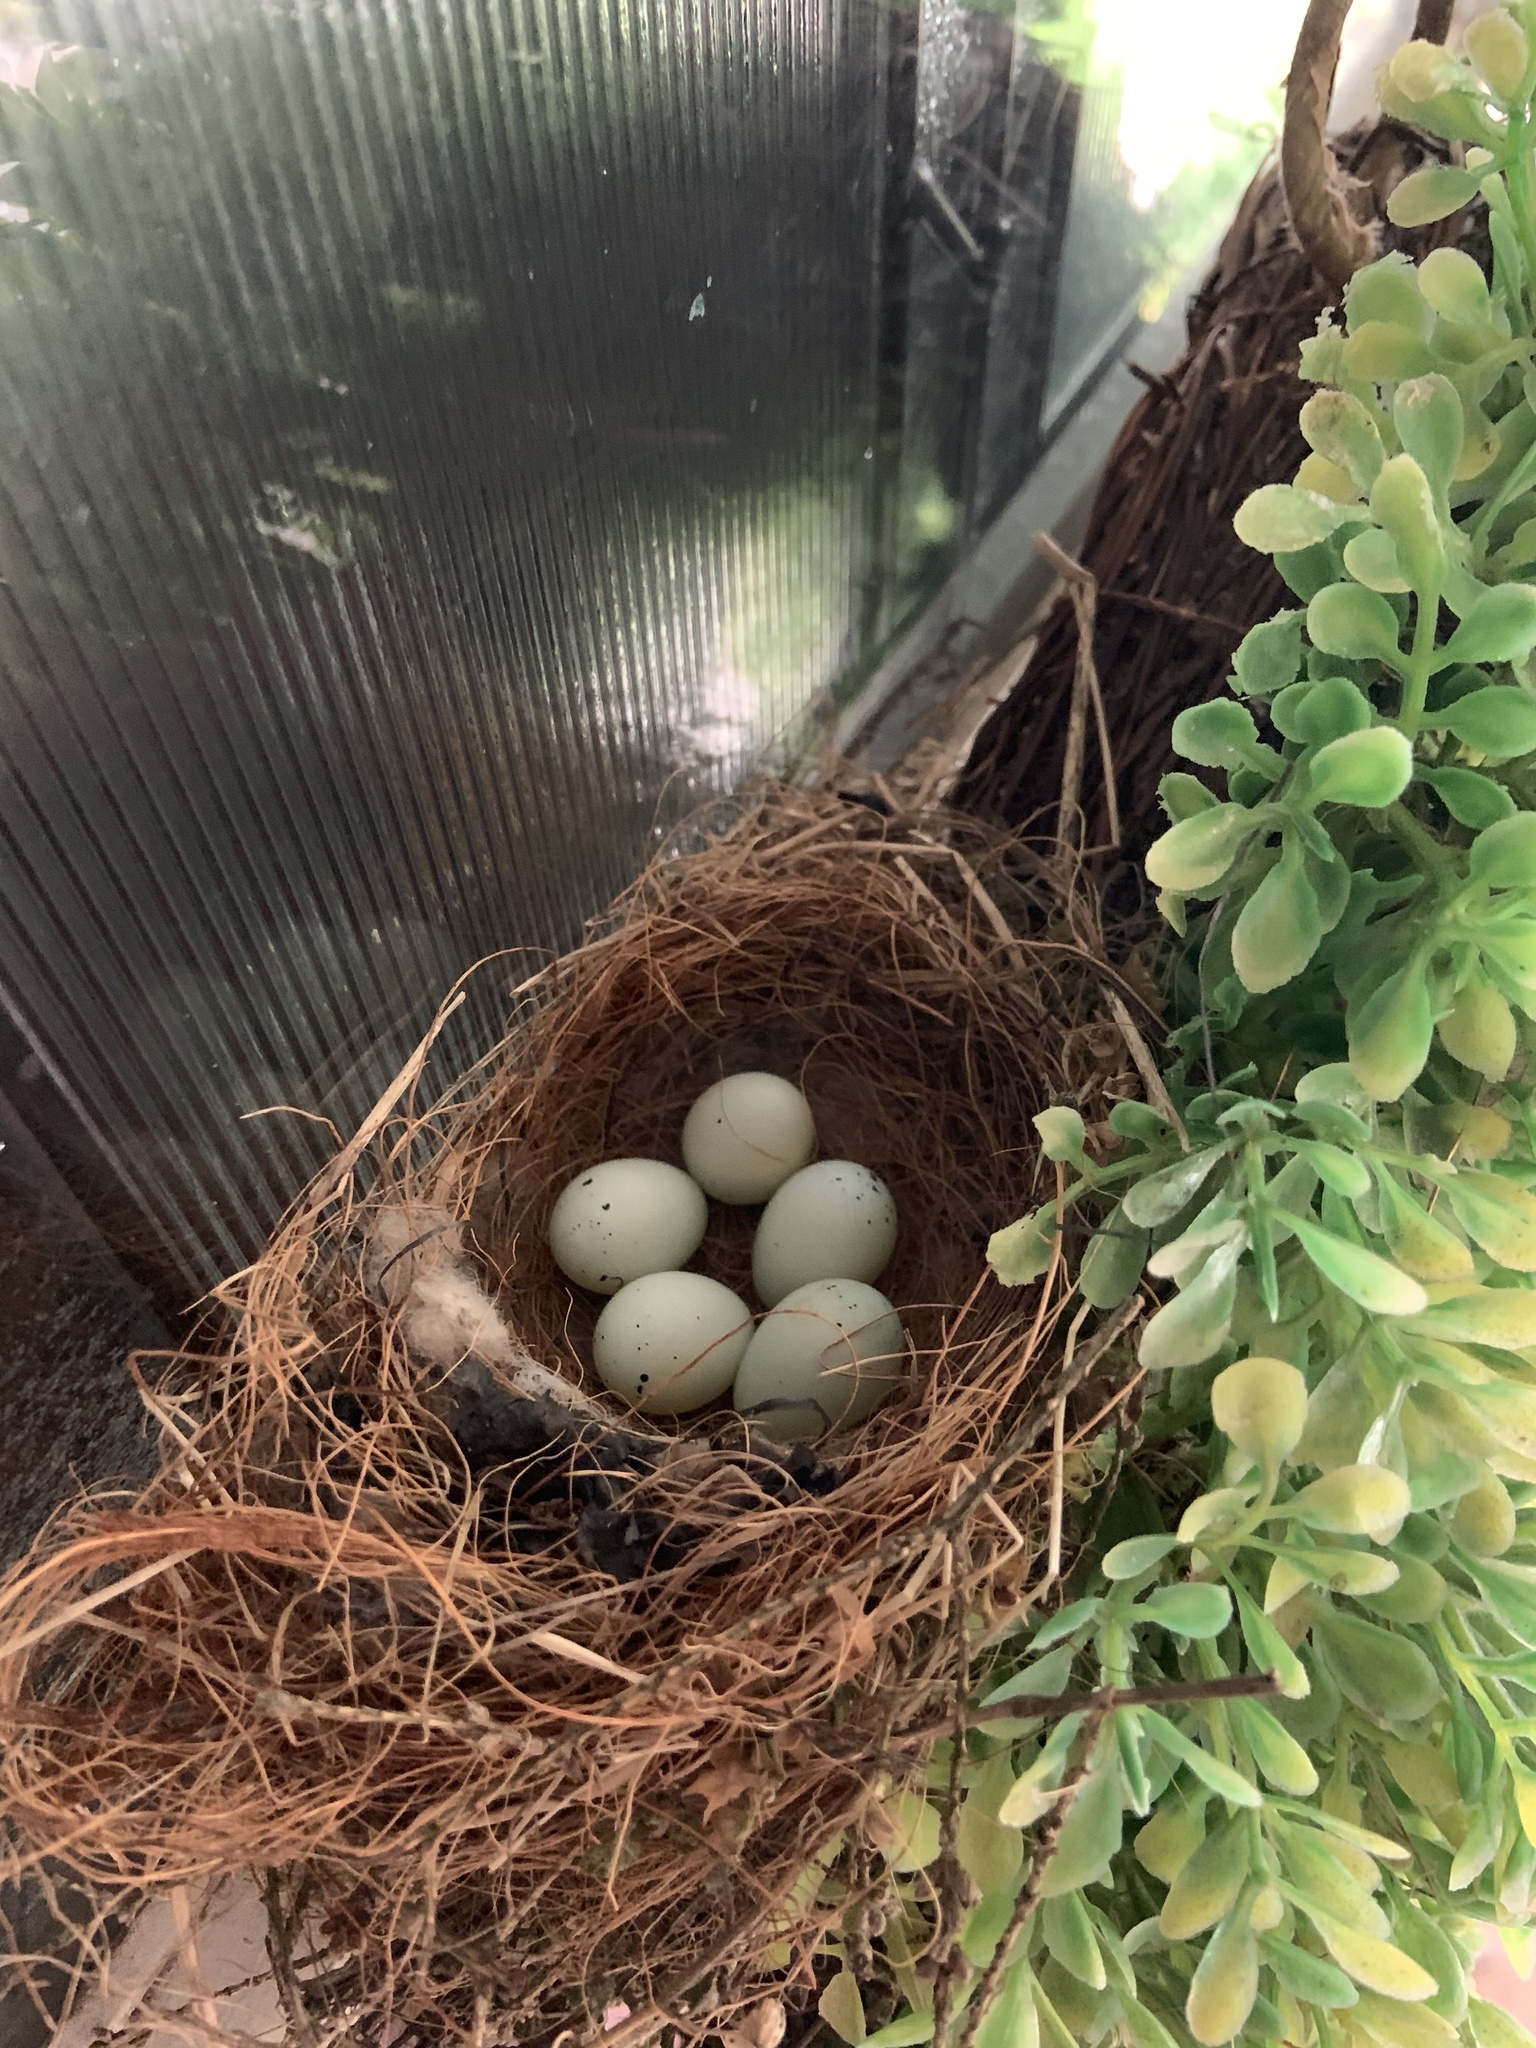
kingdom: Animalia
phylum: Chordata
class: Aves
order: Passeriformes
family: Fringillidae
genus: Haemorhous
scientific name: Haemorhous mexicanus
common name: House finch
